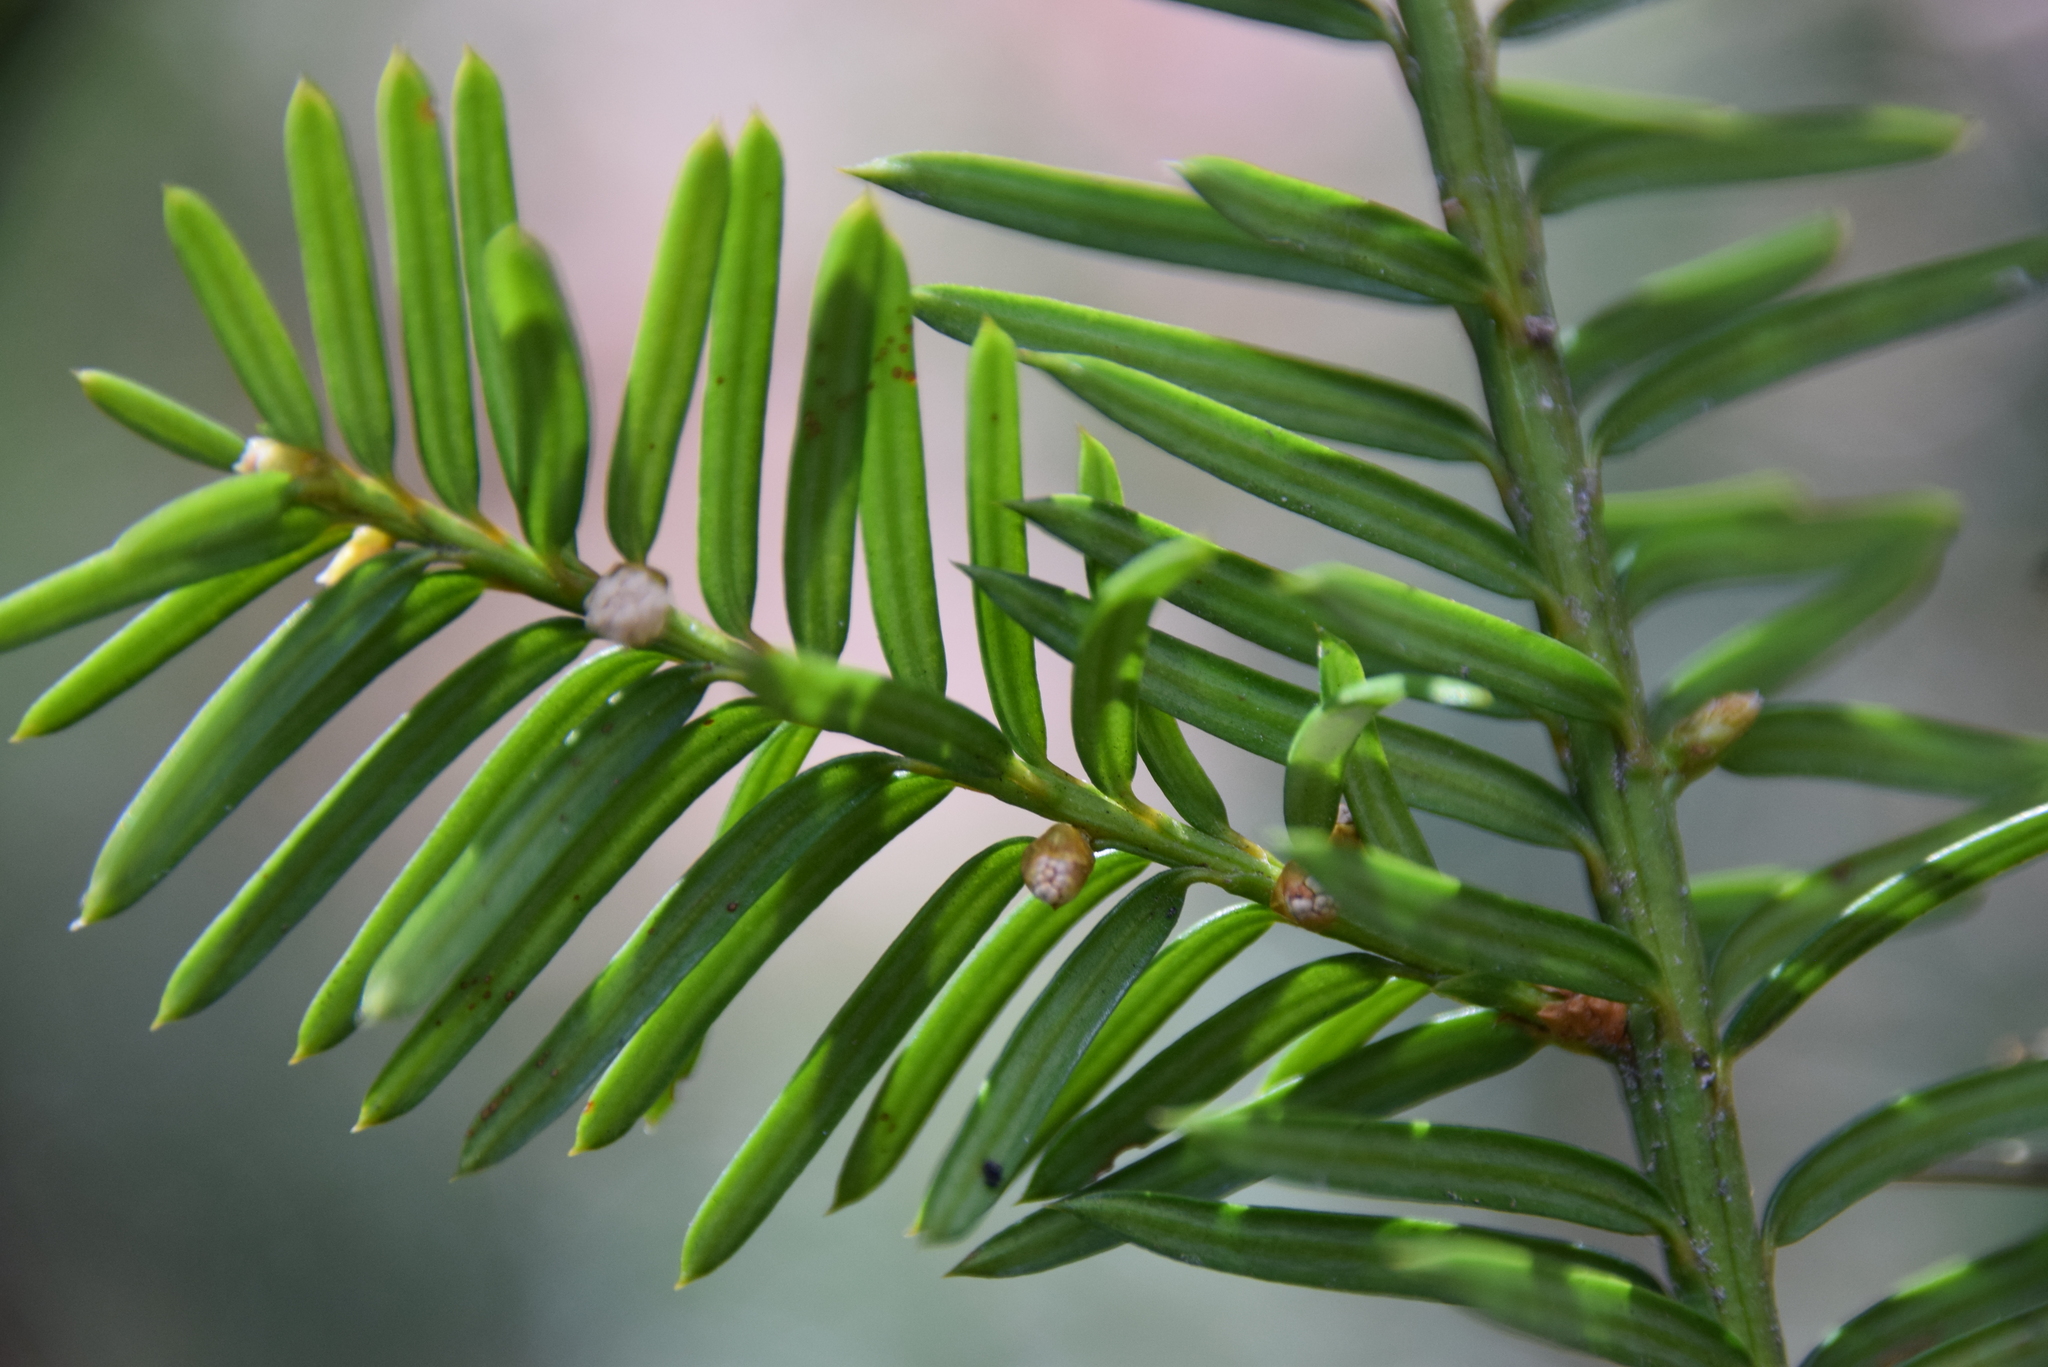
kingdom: Plantae
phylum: Tracheophyta
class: Pinopsida
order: Pinales
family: Taxaceae
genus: Taxus
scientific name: Taxus canadensis
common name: American yew
